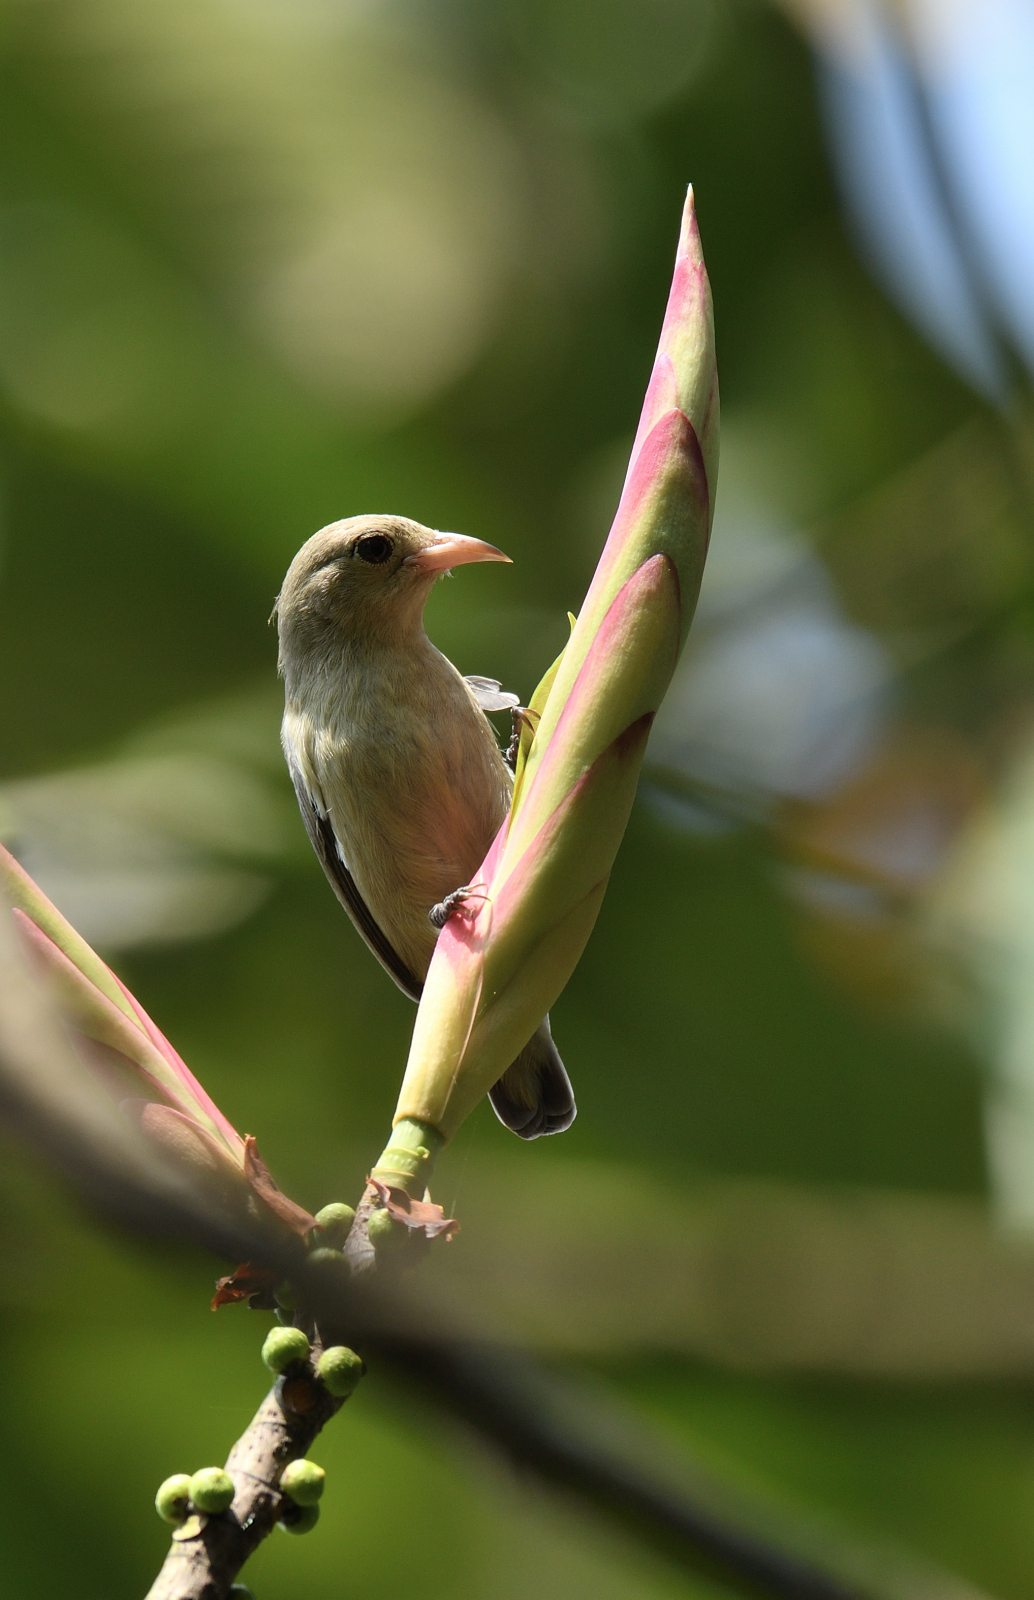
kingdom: Animalia
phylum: Chordata
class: Aves
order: Passeriformes
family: Dicaeidae
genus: Dicaeum
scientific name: Dicaeum erythrorhynchos
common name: Pale-billed flowerpecker
